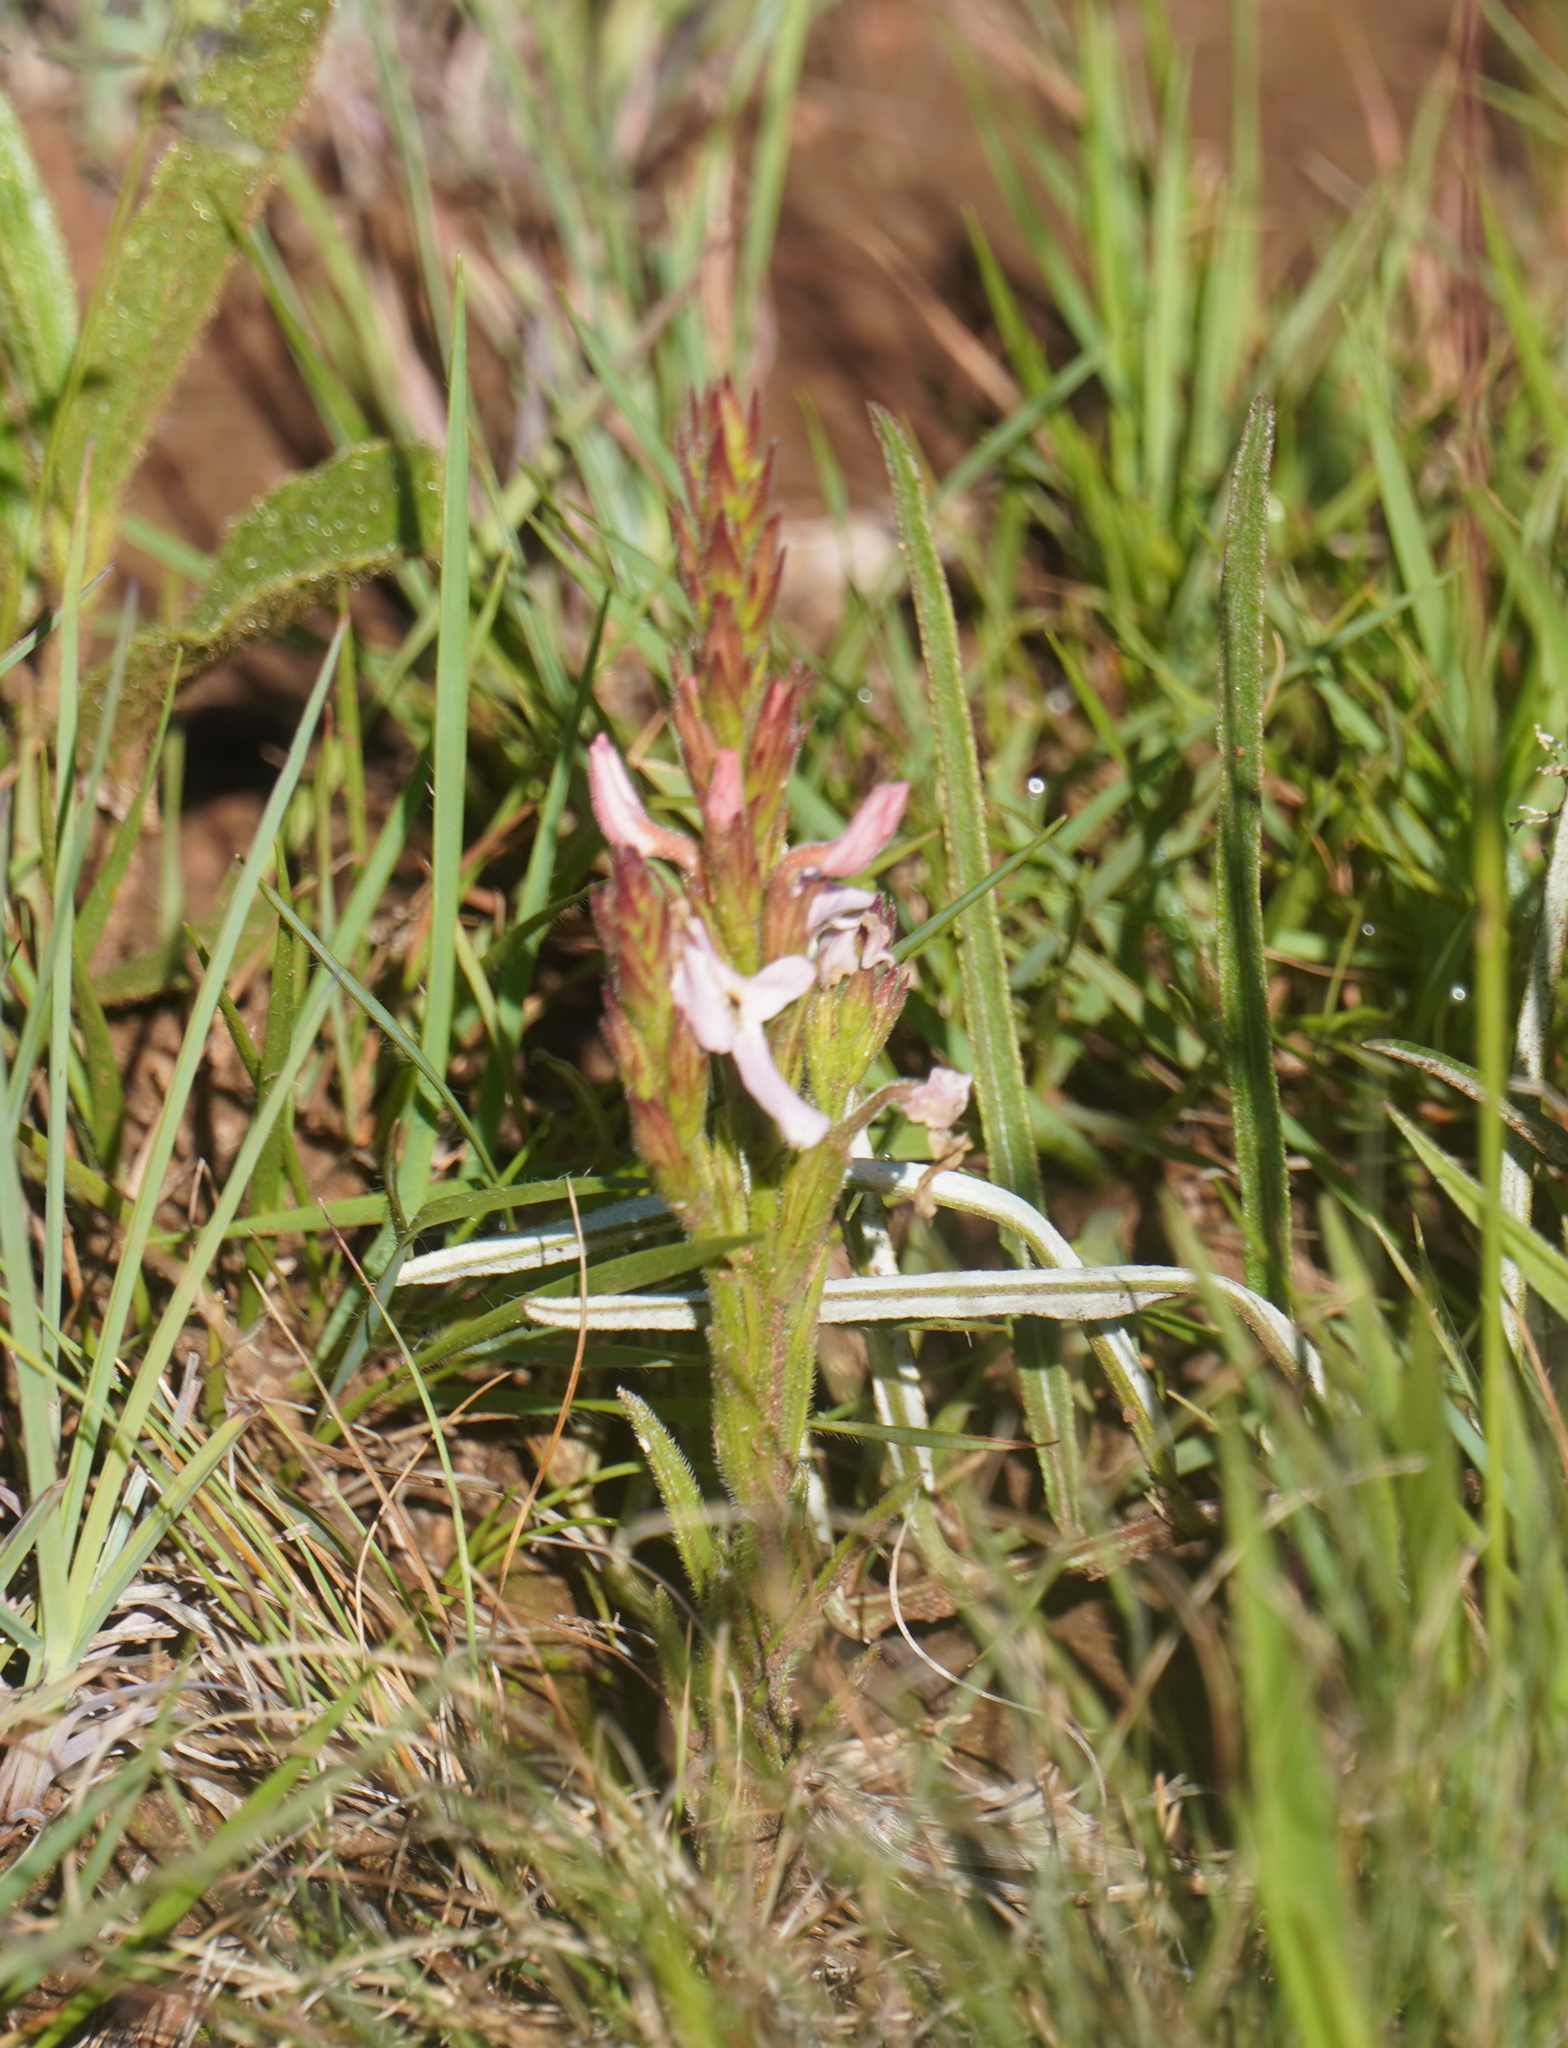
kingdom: Plantae
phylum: Tracheophyta
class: Magnoliopsida
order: Lamiales
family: Orobanchaceae
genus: Striga
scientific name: Striga elegans
